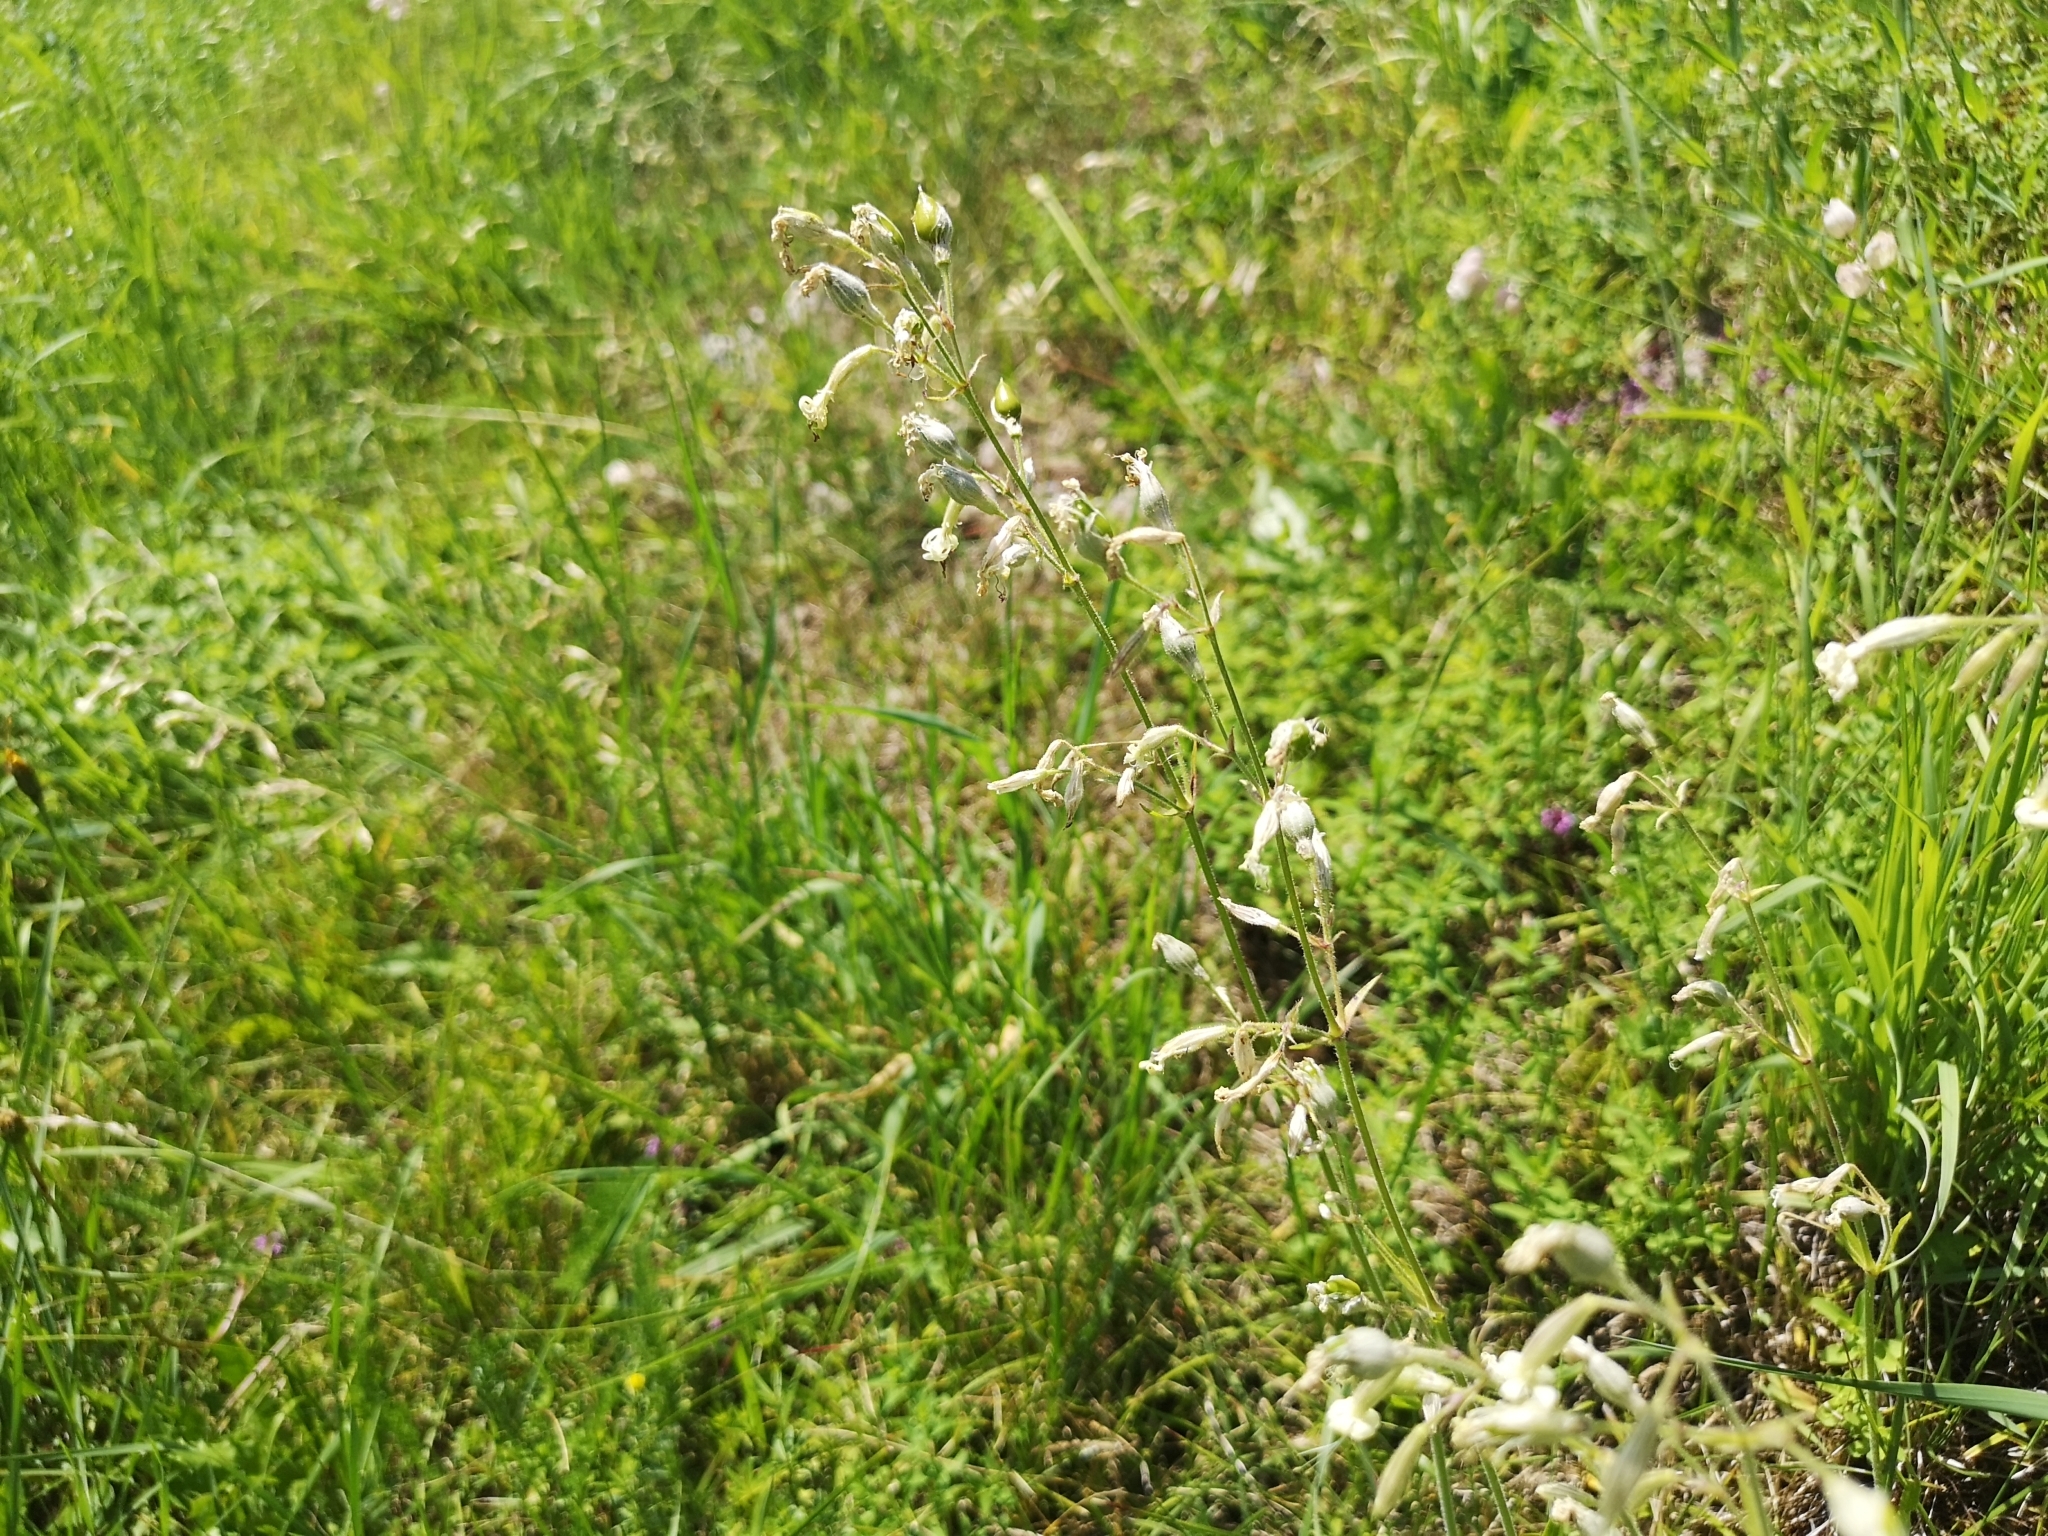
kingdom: Plantae
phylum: Tracheophyta
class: Magnoliopsida
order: Caryophyllales
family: Caryophyllaceae
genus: Silene
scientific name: Silene nutans
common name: Nottingham catchfly
